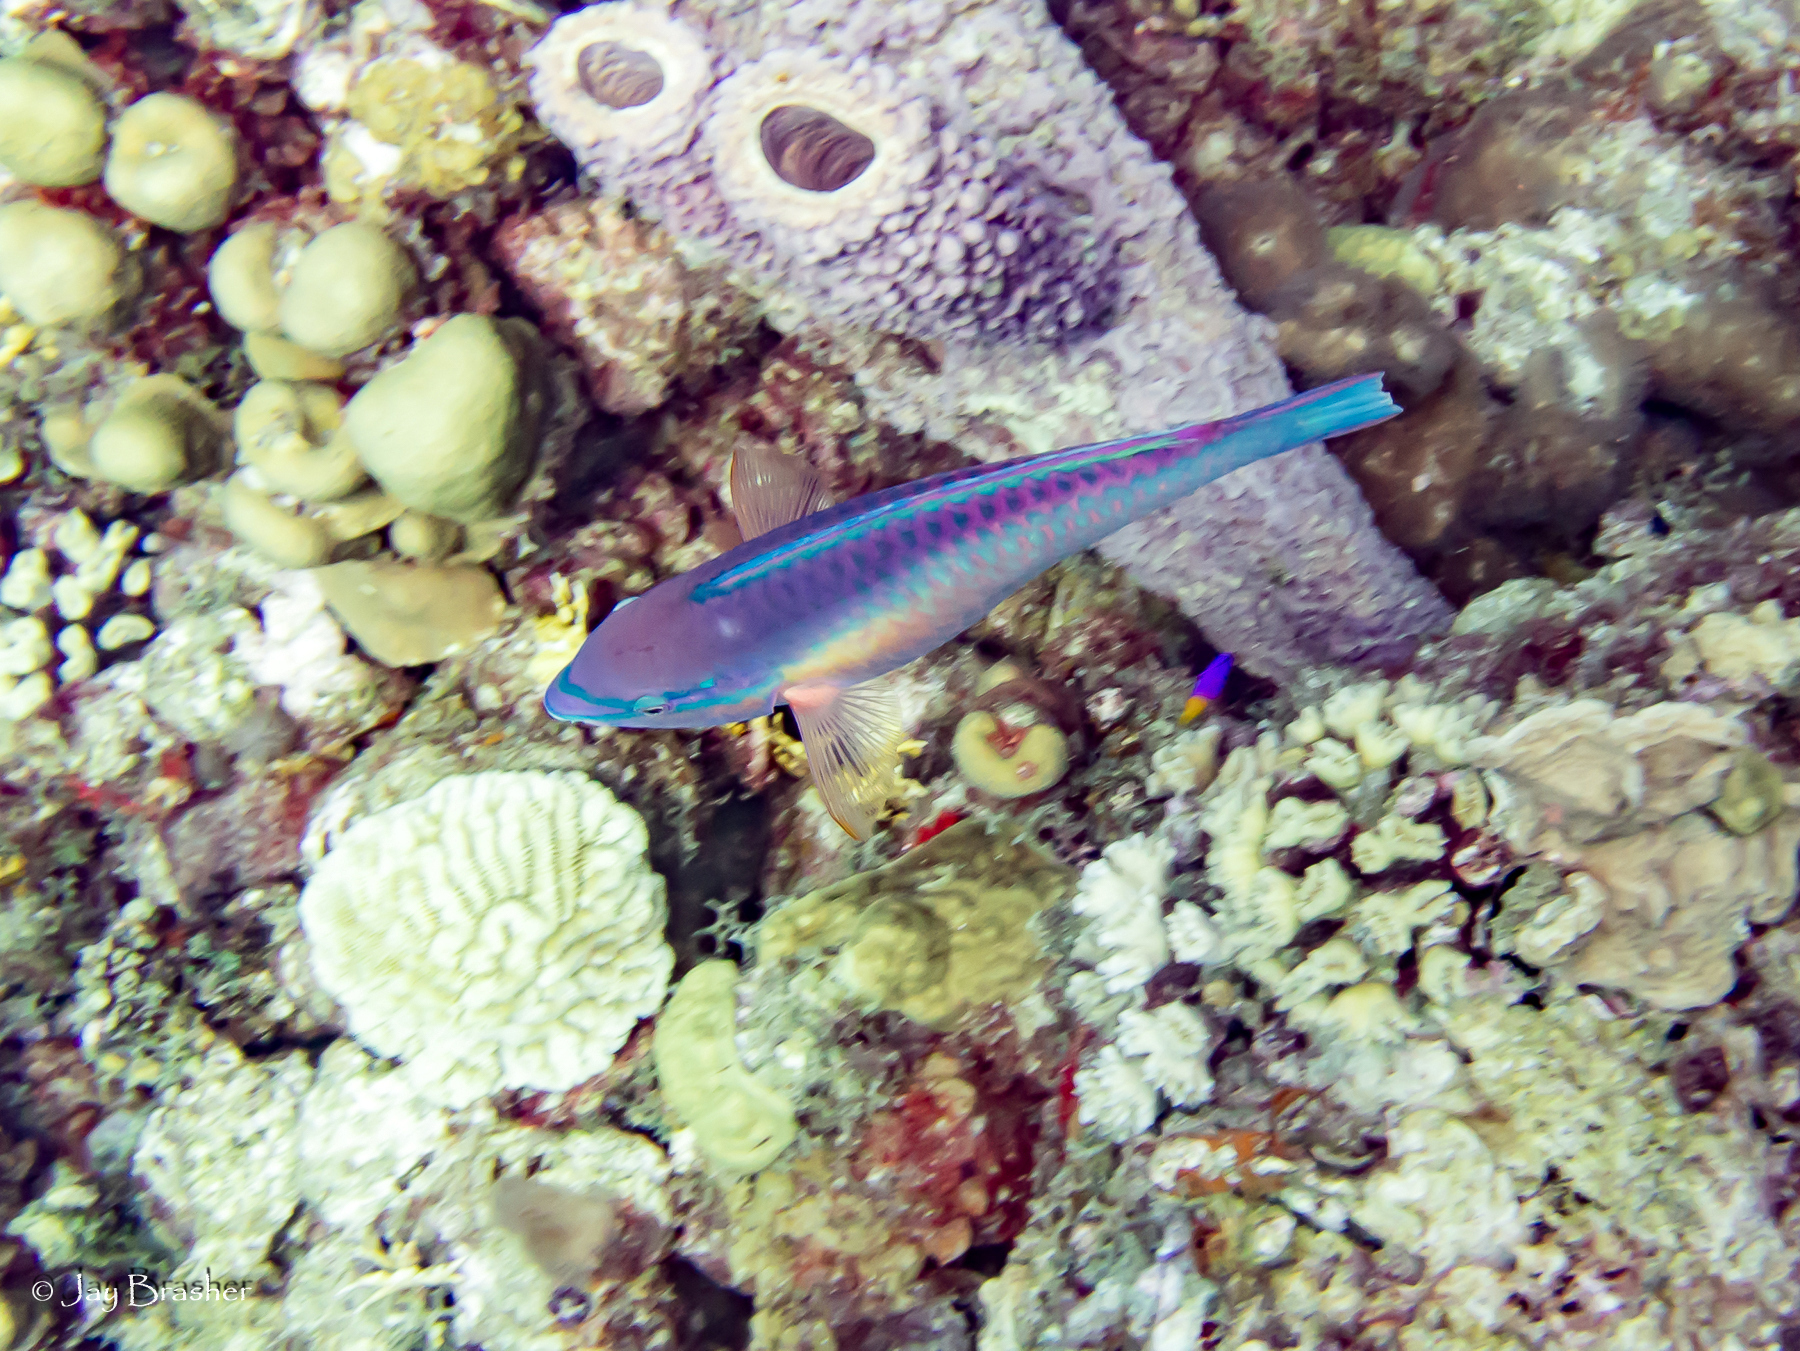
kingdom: Animalia
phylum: Chordata
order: Perciformes
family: Scaridae
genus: Scarus
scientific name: Scarus taeniopterus
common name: Princess parrotfish
